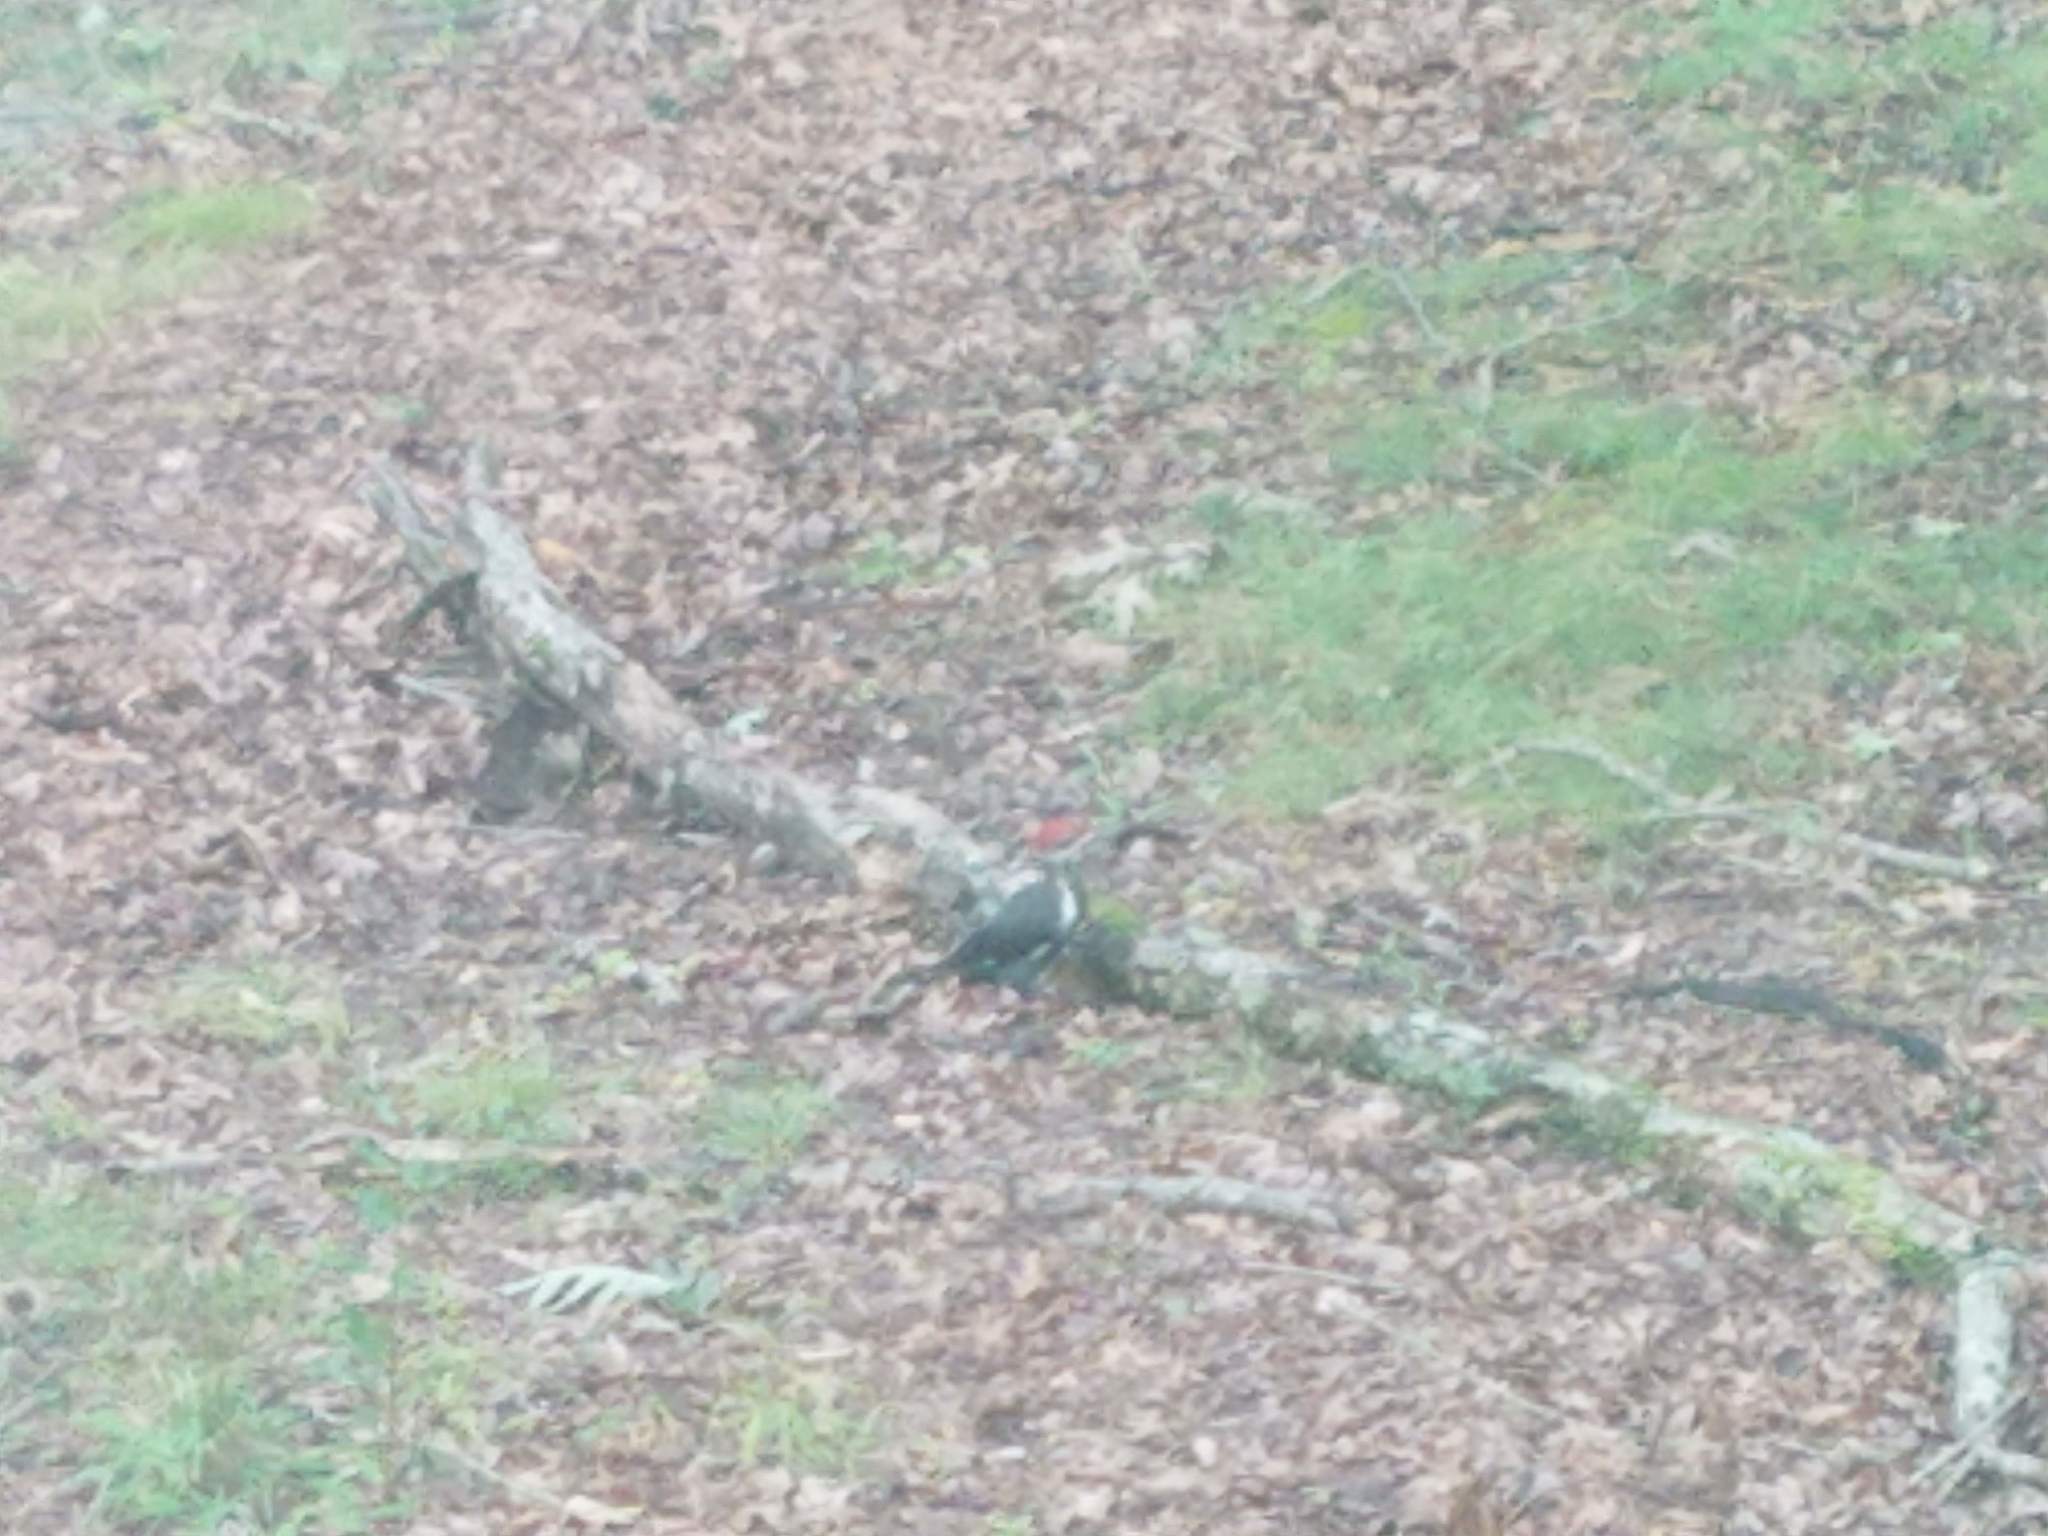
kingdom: Animalia
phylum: Chordata
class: Aves
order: Piciformes
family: Picidae
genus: Dryocopus
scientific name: Dryocopus pileatus
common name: Pileated woodpecker
